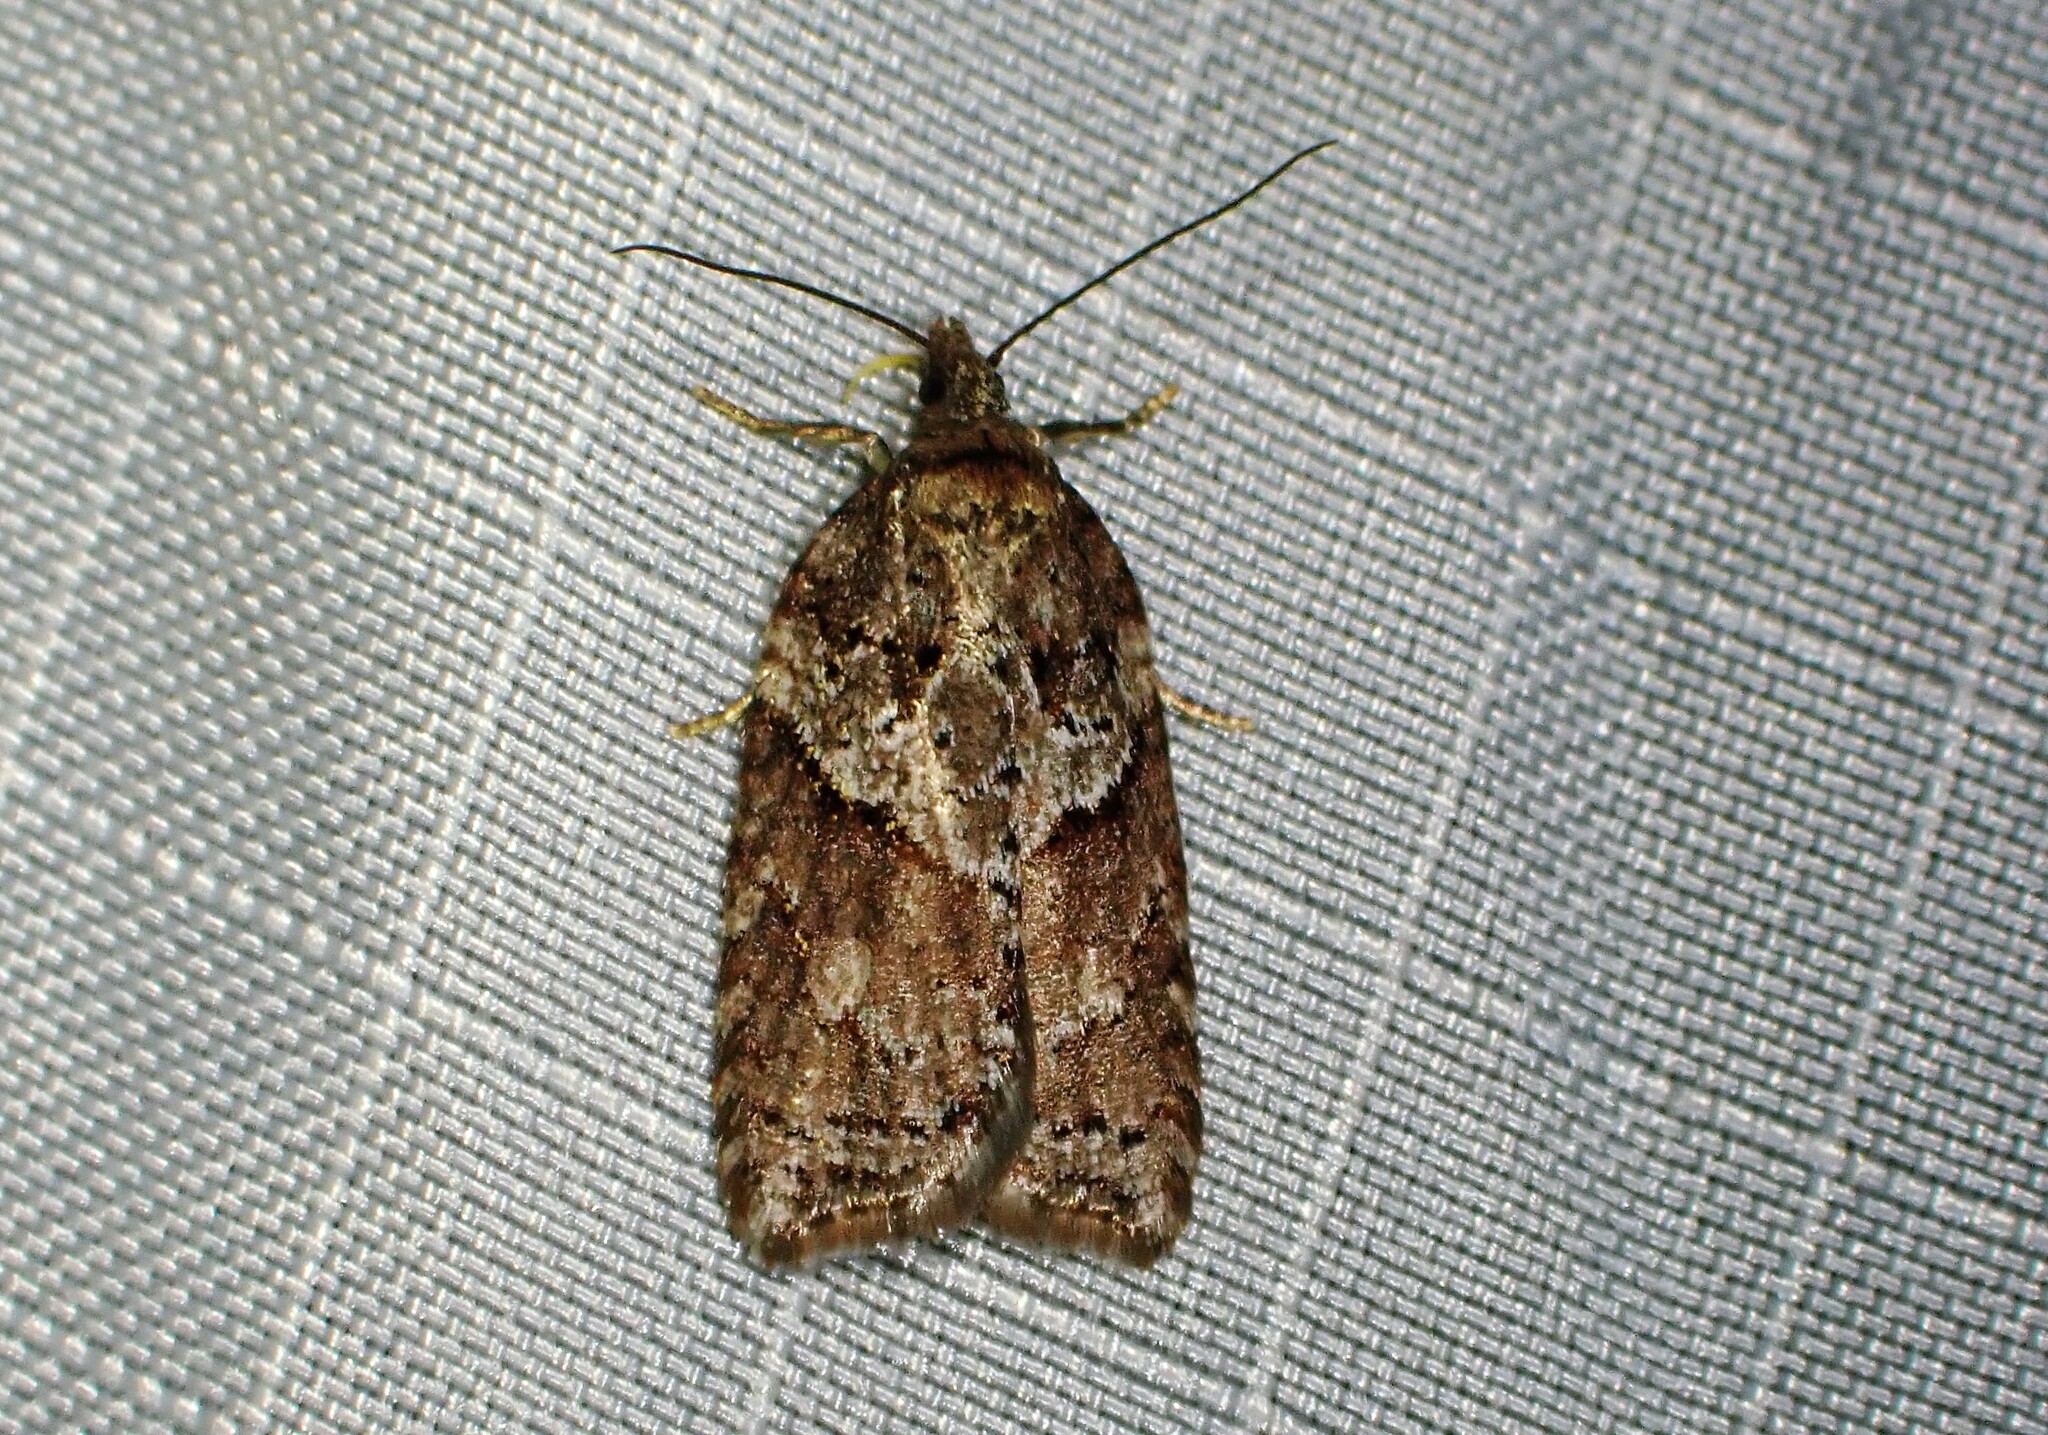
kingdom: Animalia
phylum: Arthropoda
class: Insecta
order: Lepidoptera
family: Tortricidae
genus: Acleris
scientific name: Acleris maccana
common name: Marbled button
